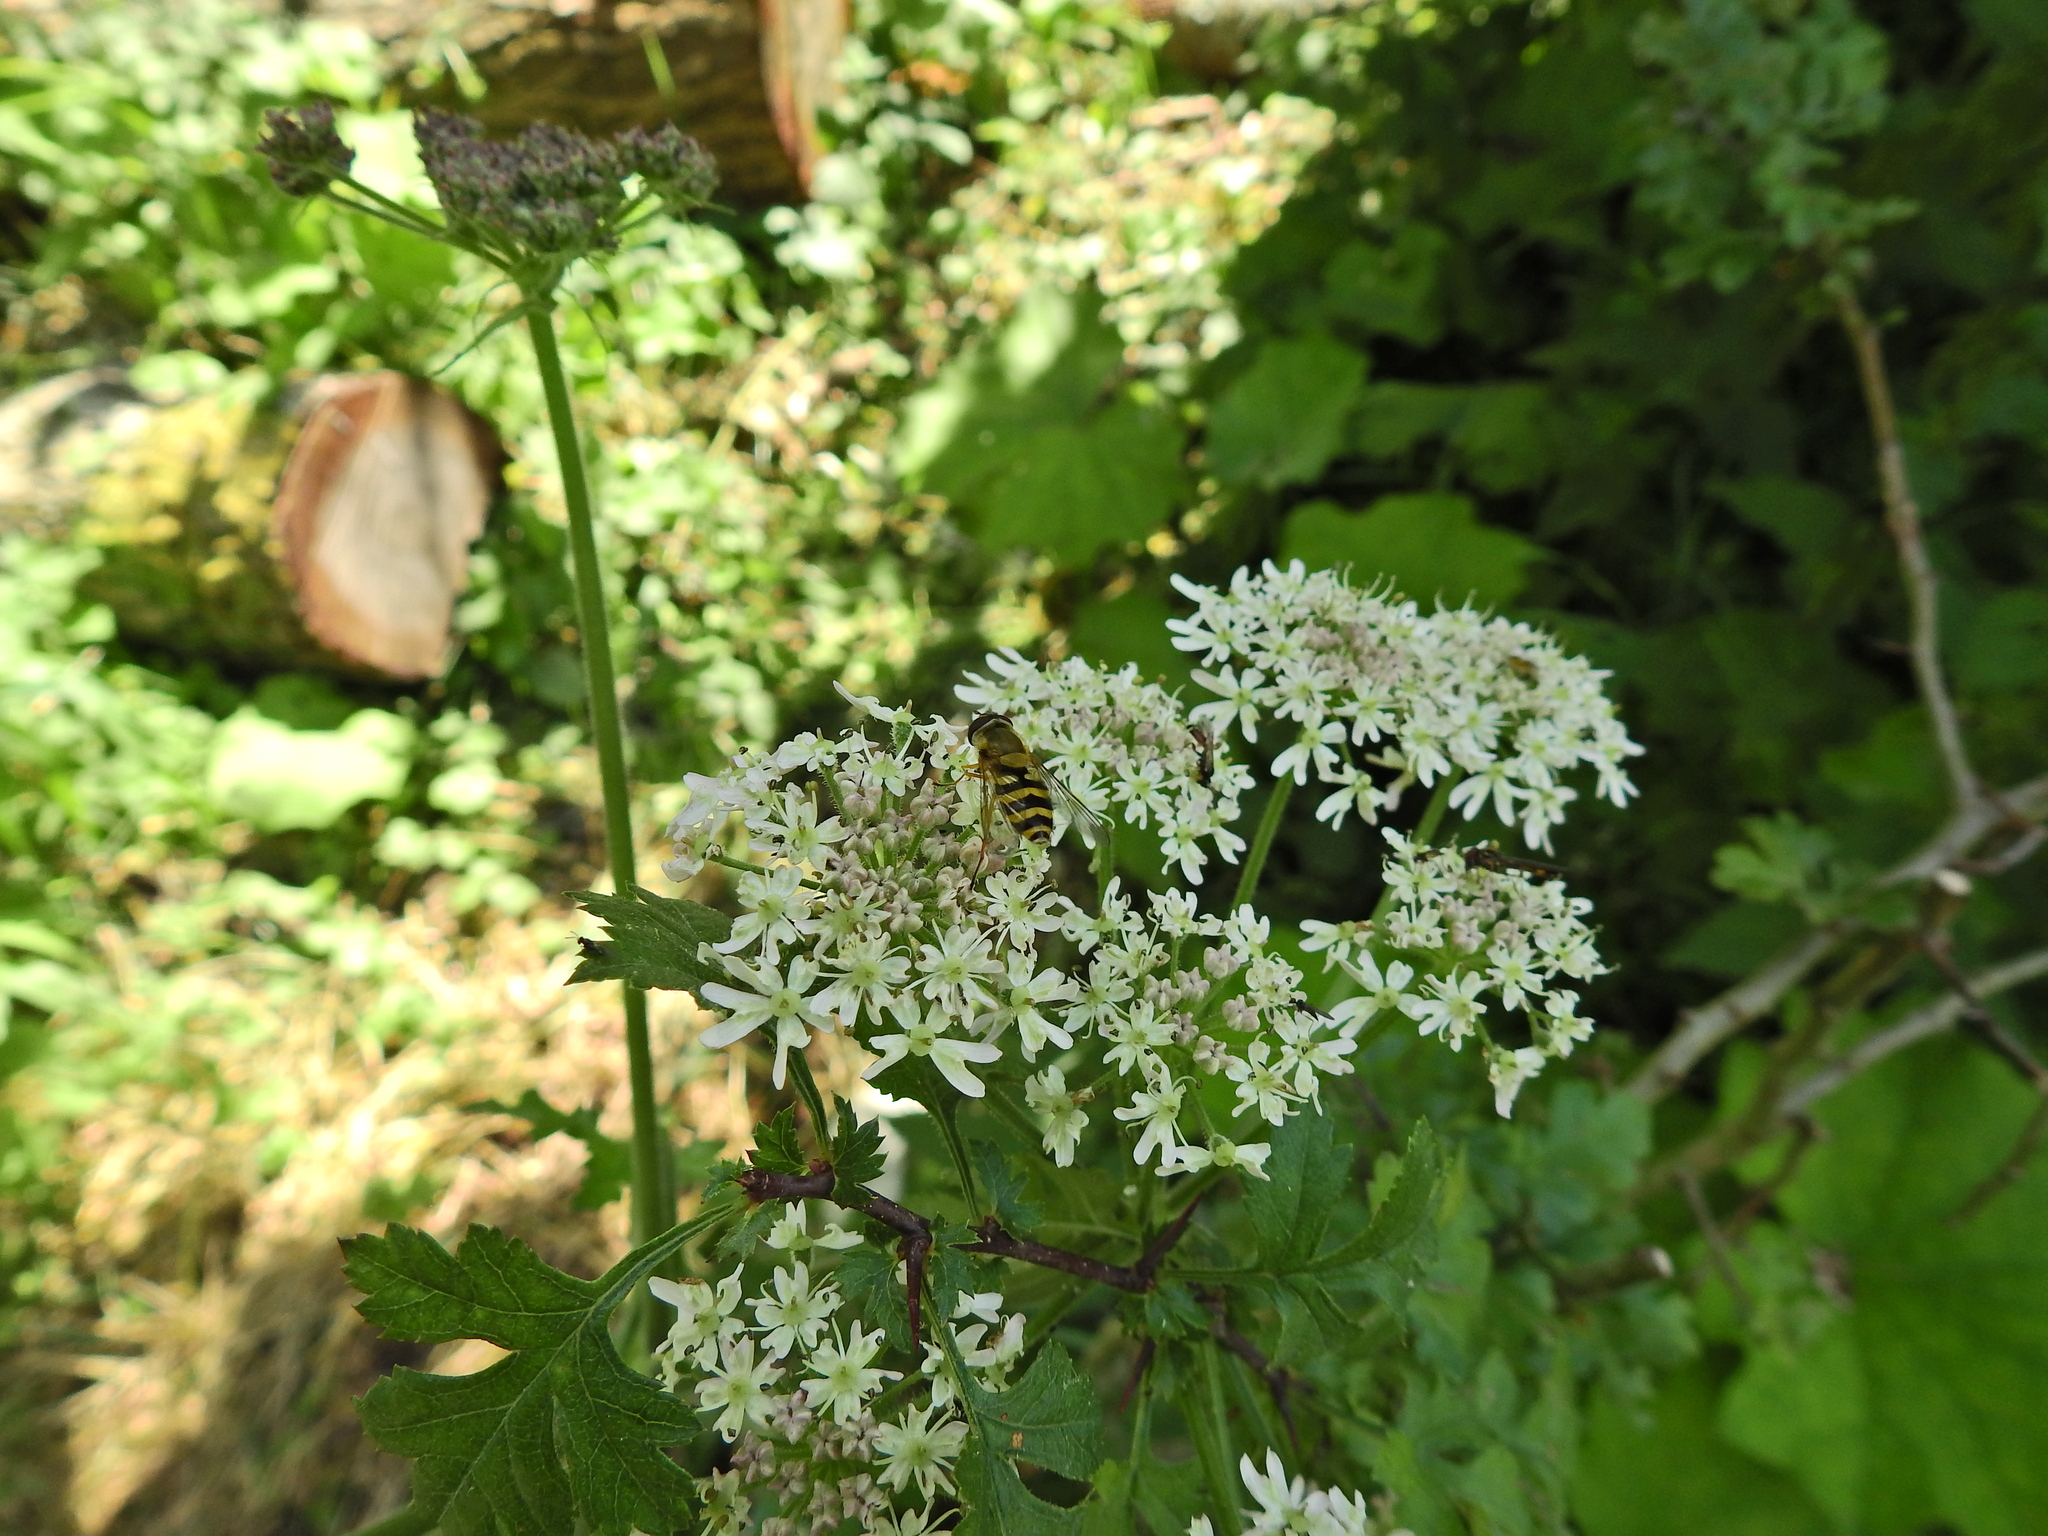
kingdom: Animalia
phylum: Arthropoda
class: Insecta
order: Diptera
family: Syrphidae
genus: Syrphus
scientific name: Syrphus ribesii
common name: Common flower fly
